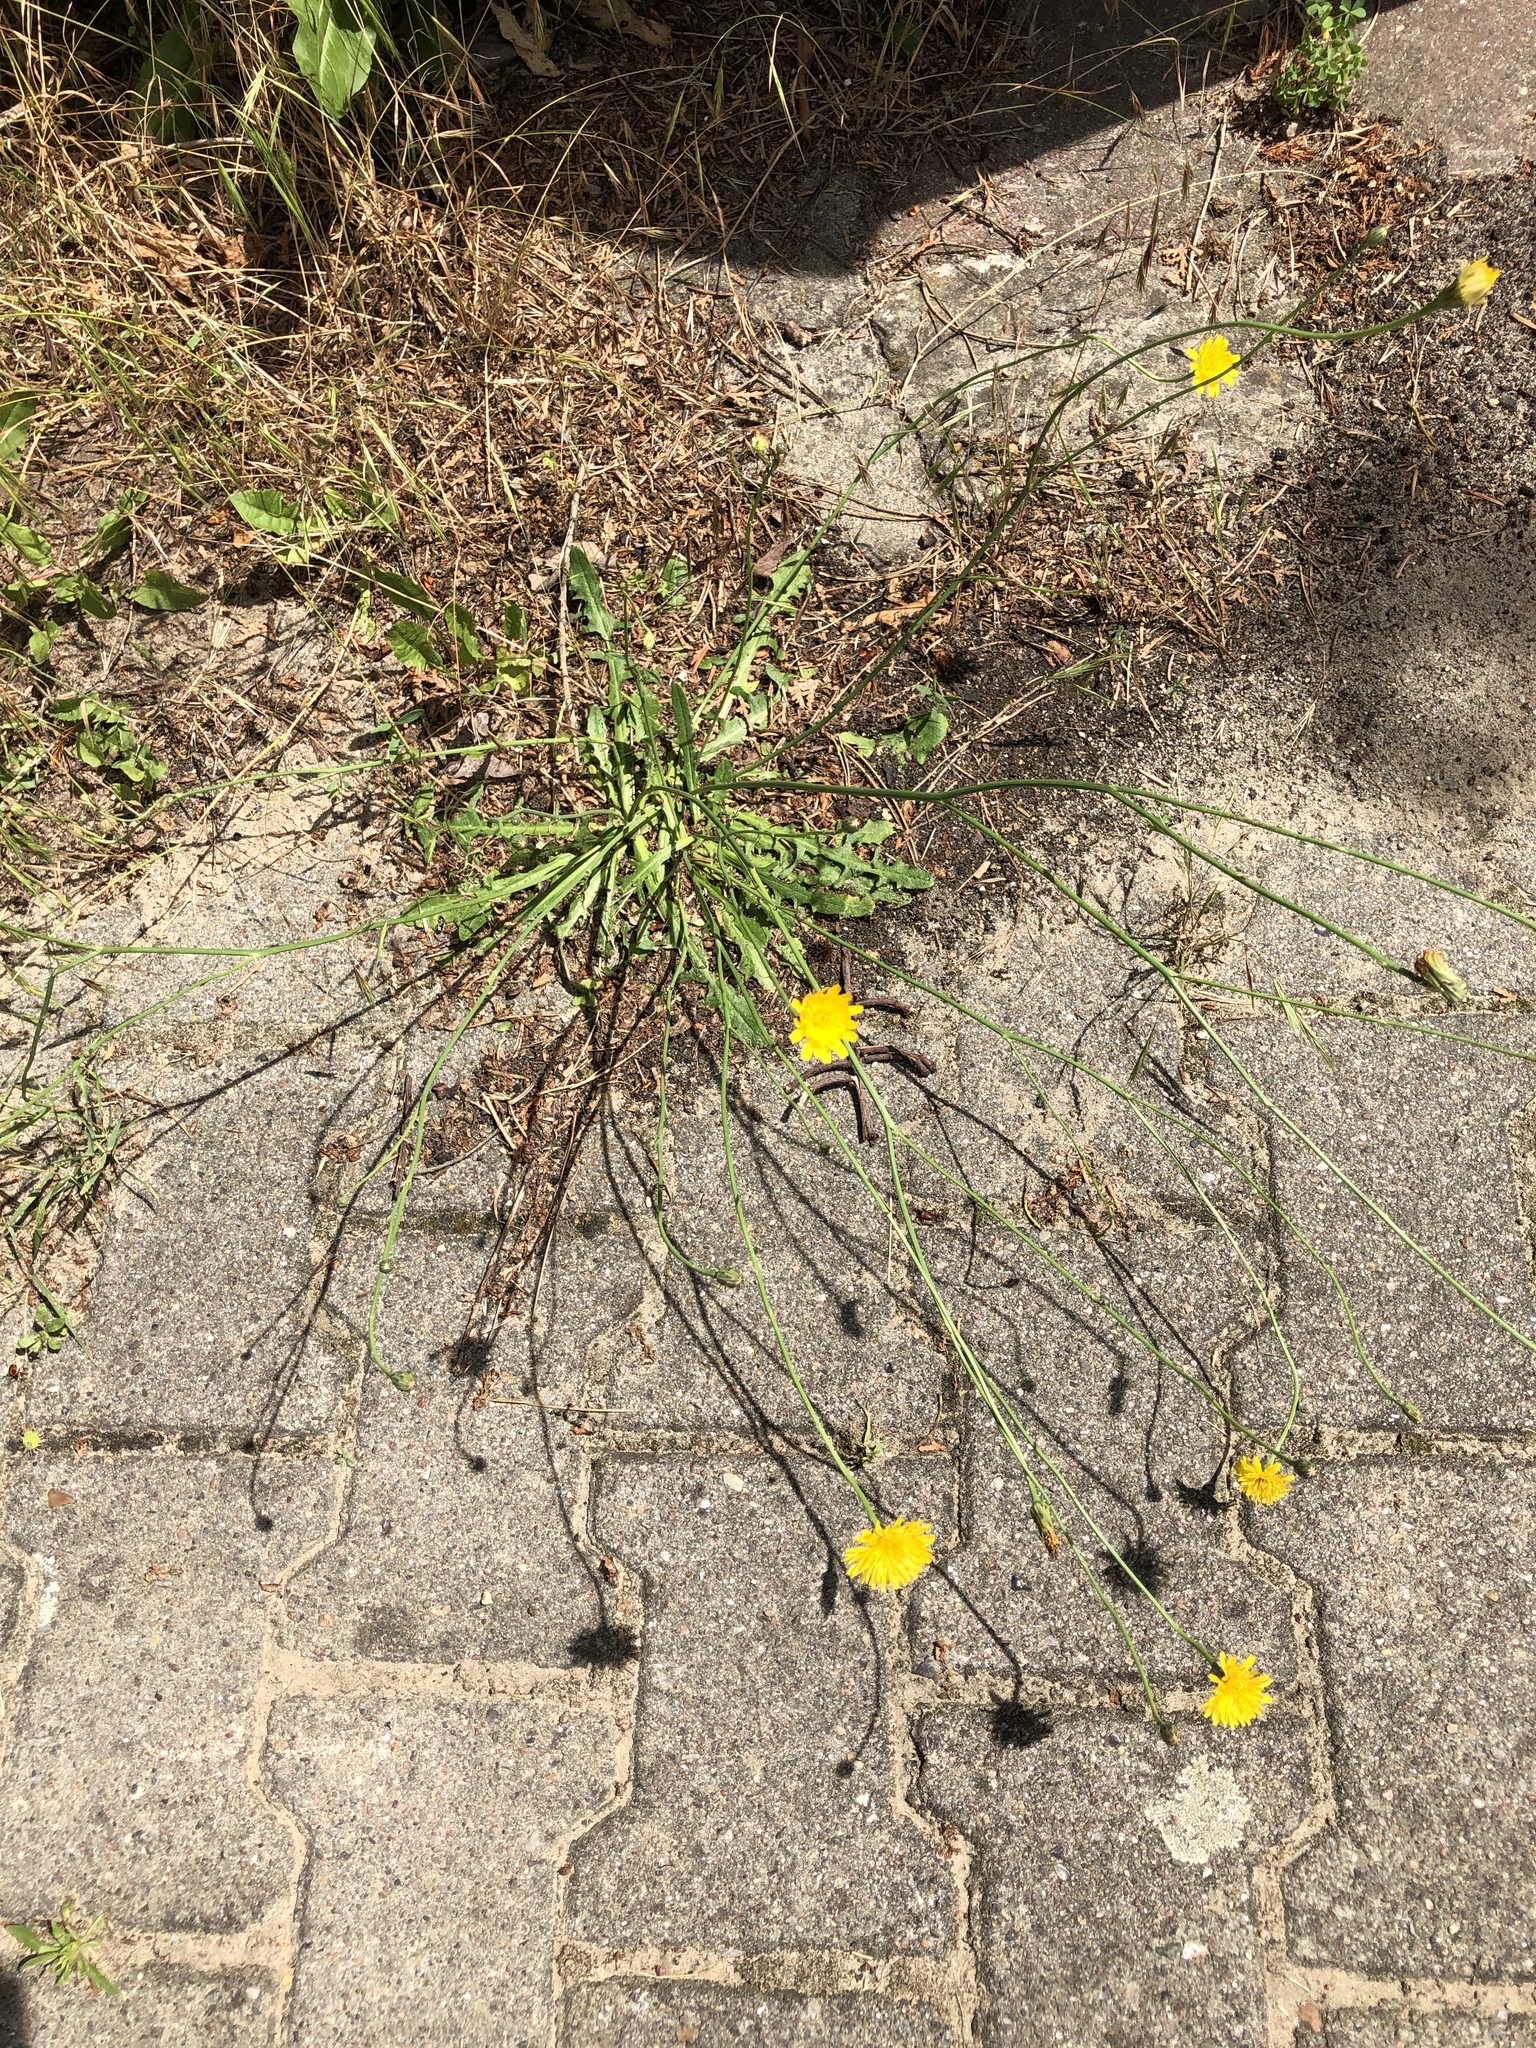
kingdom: Plantae
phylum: Tracheophyta
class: Magnoliopsida
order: Asterales
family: Asteraceae
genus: Hypochaeris
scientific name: Hypochaeris radicata
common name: Flatweed
